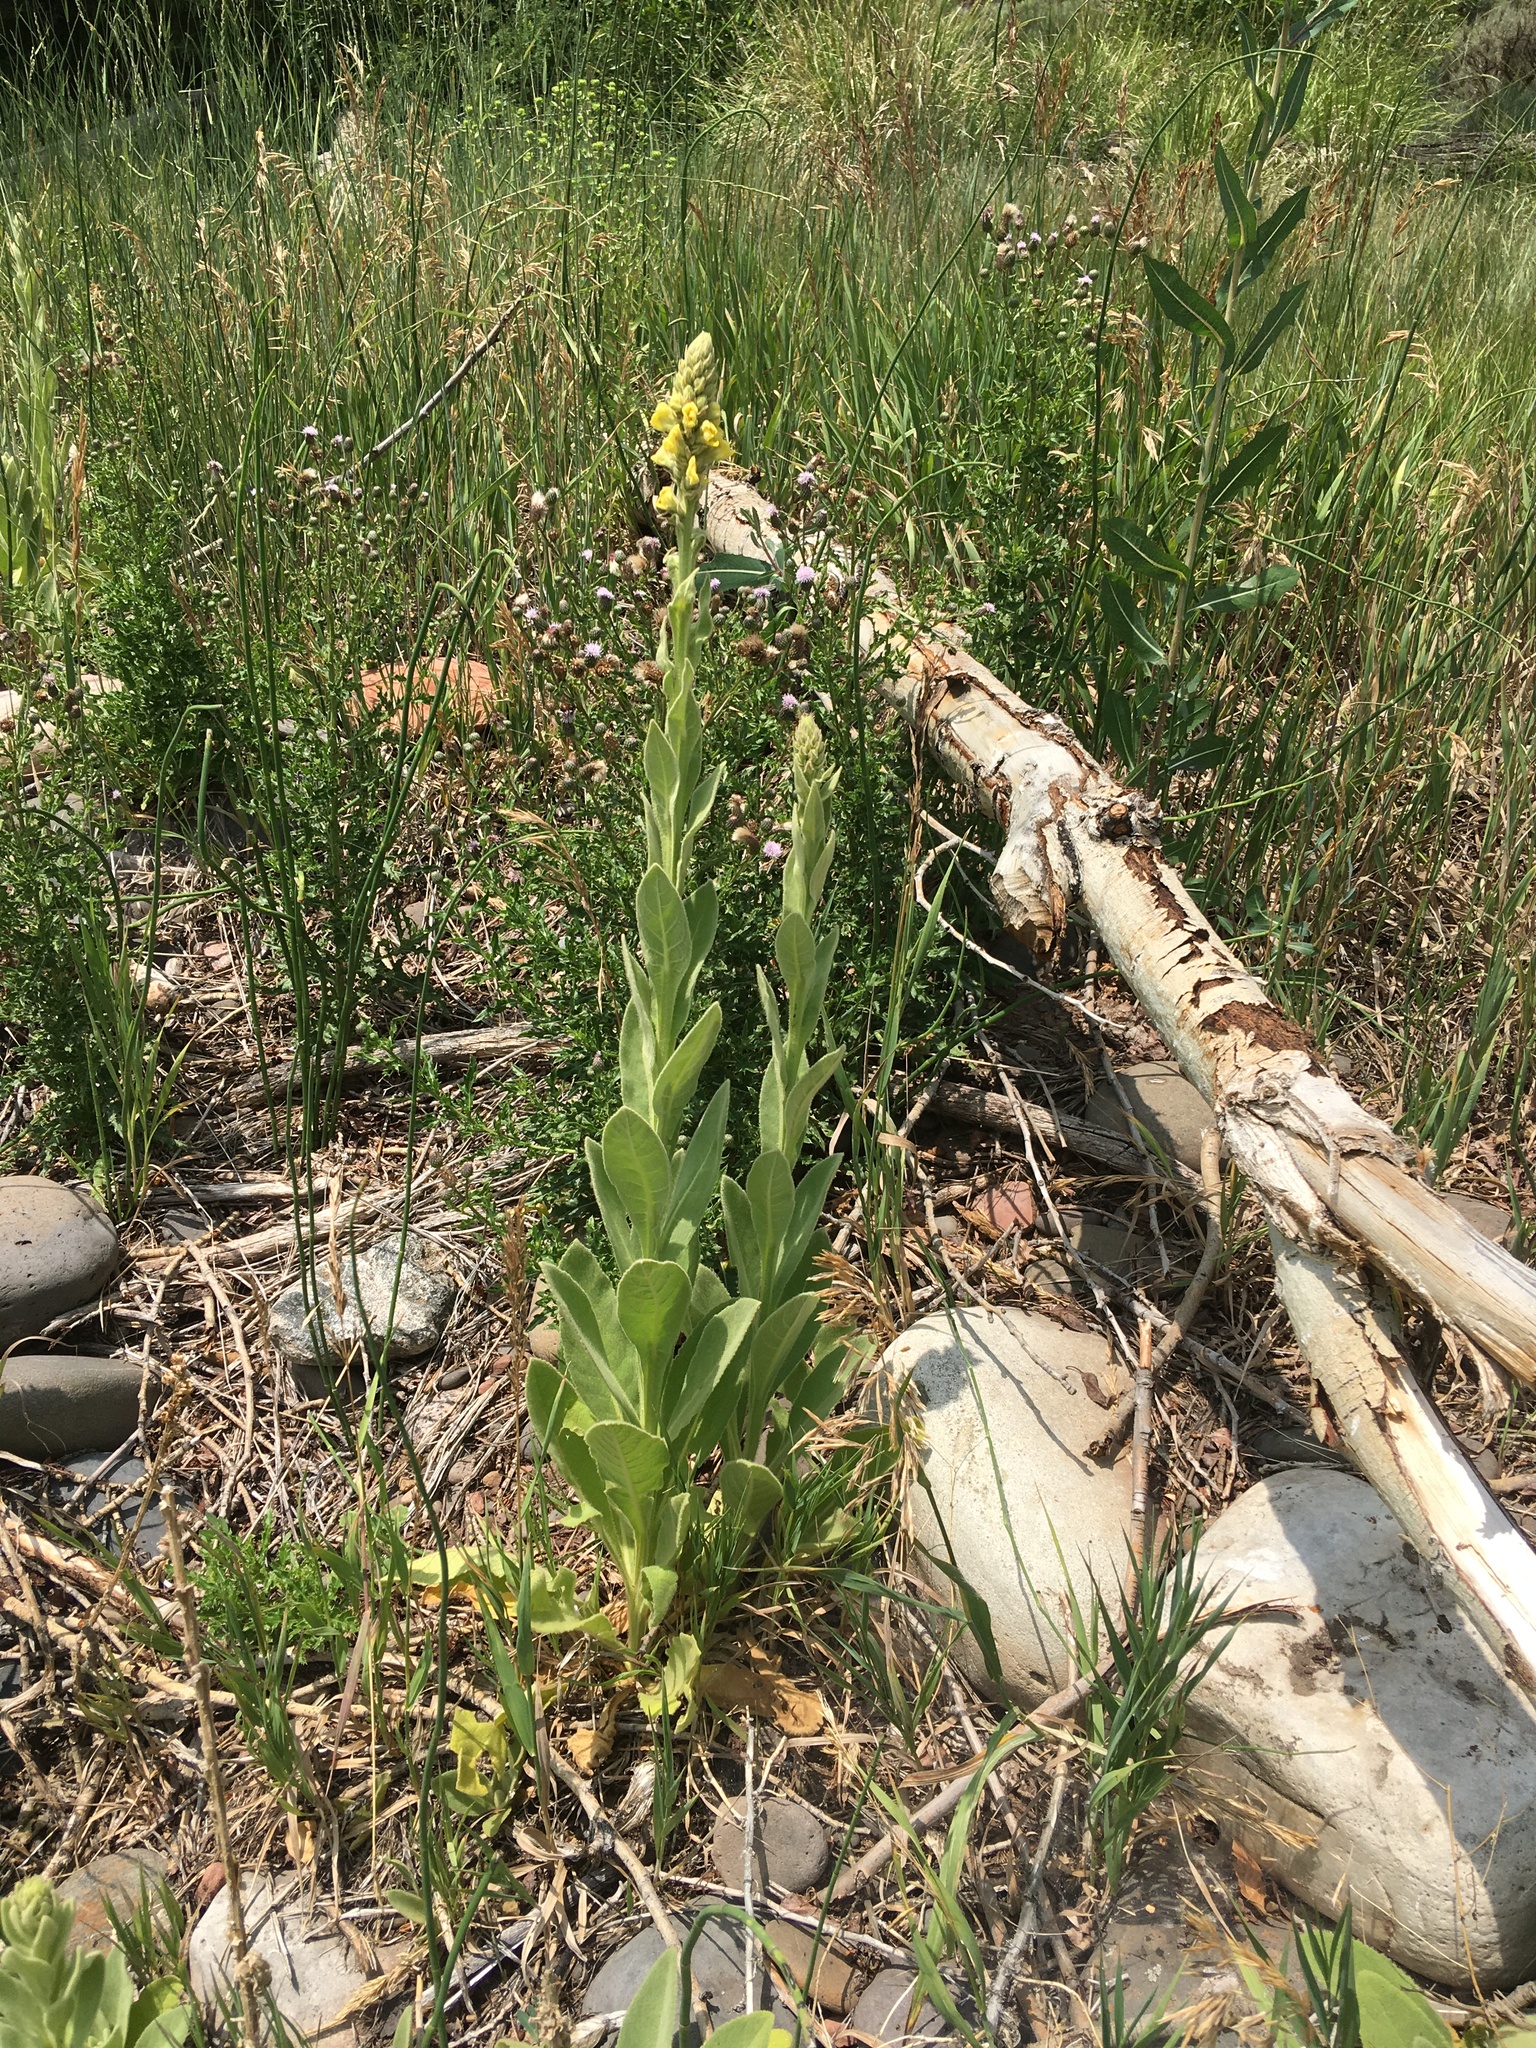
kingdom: Plantae
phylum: Tracheophyta
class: Magnoliopsida
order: Lamiales
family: Scrophulariaceae
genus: Verbascum
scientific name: Verbascum thapsus
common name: Common mullein
